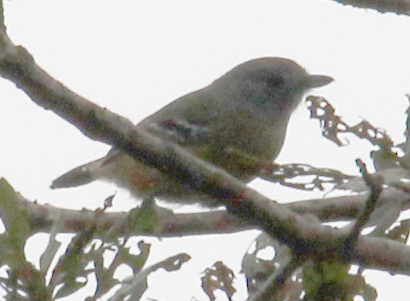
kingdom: Animalia
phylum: Chordata
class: Aves
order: Passeriformes
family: Thamnophilidae
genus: Thamnophilus
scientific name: Thamnophilus caerulescens
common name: Variable antshrike
